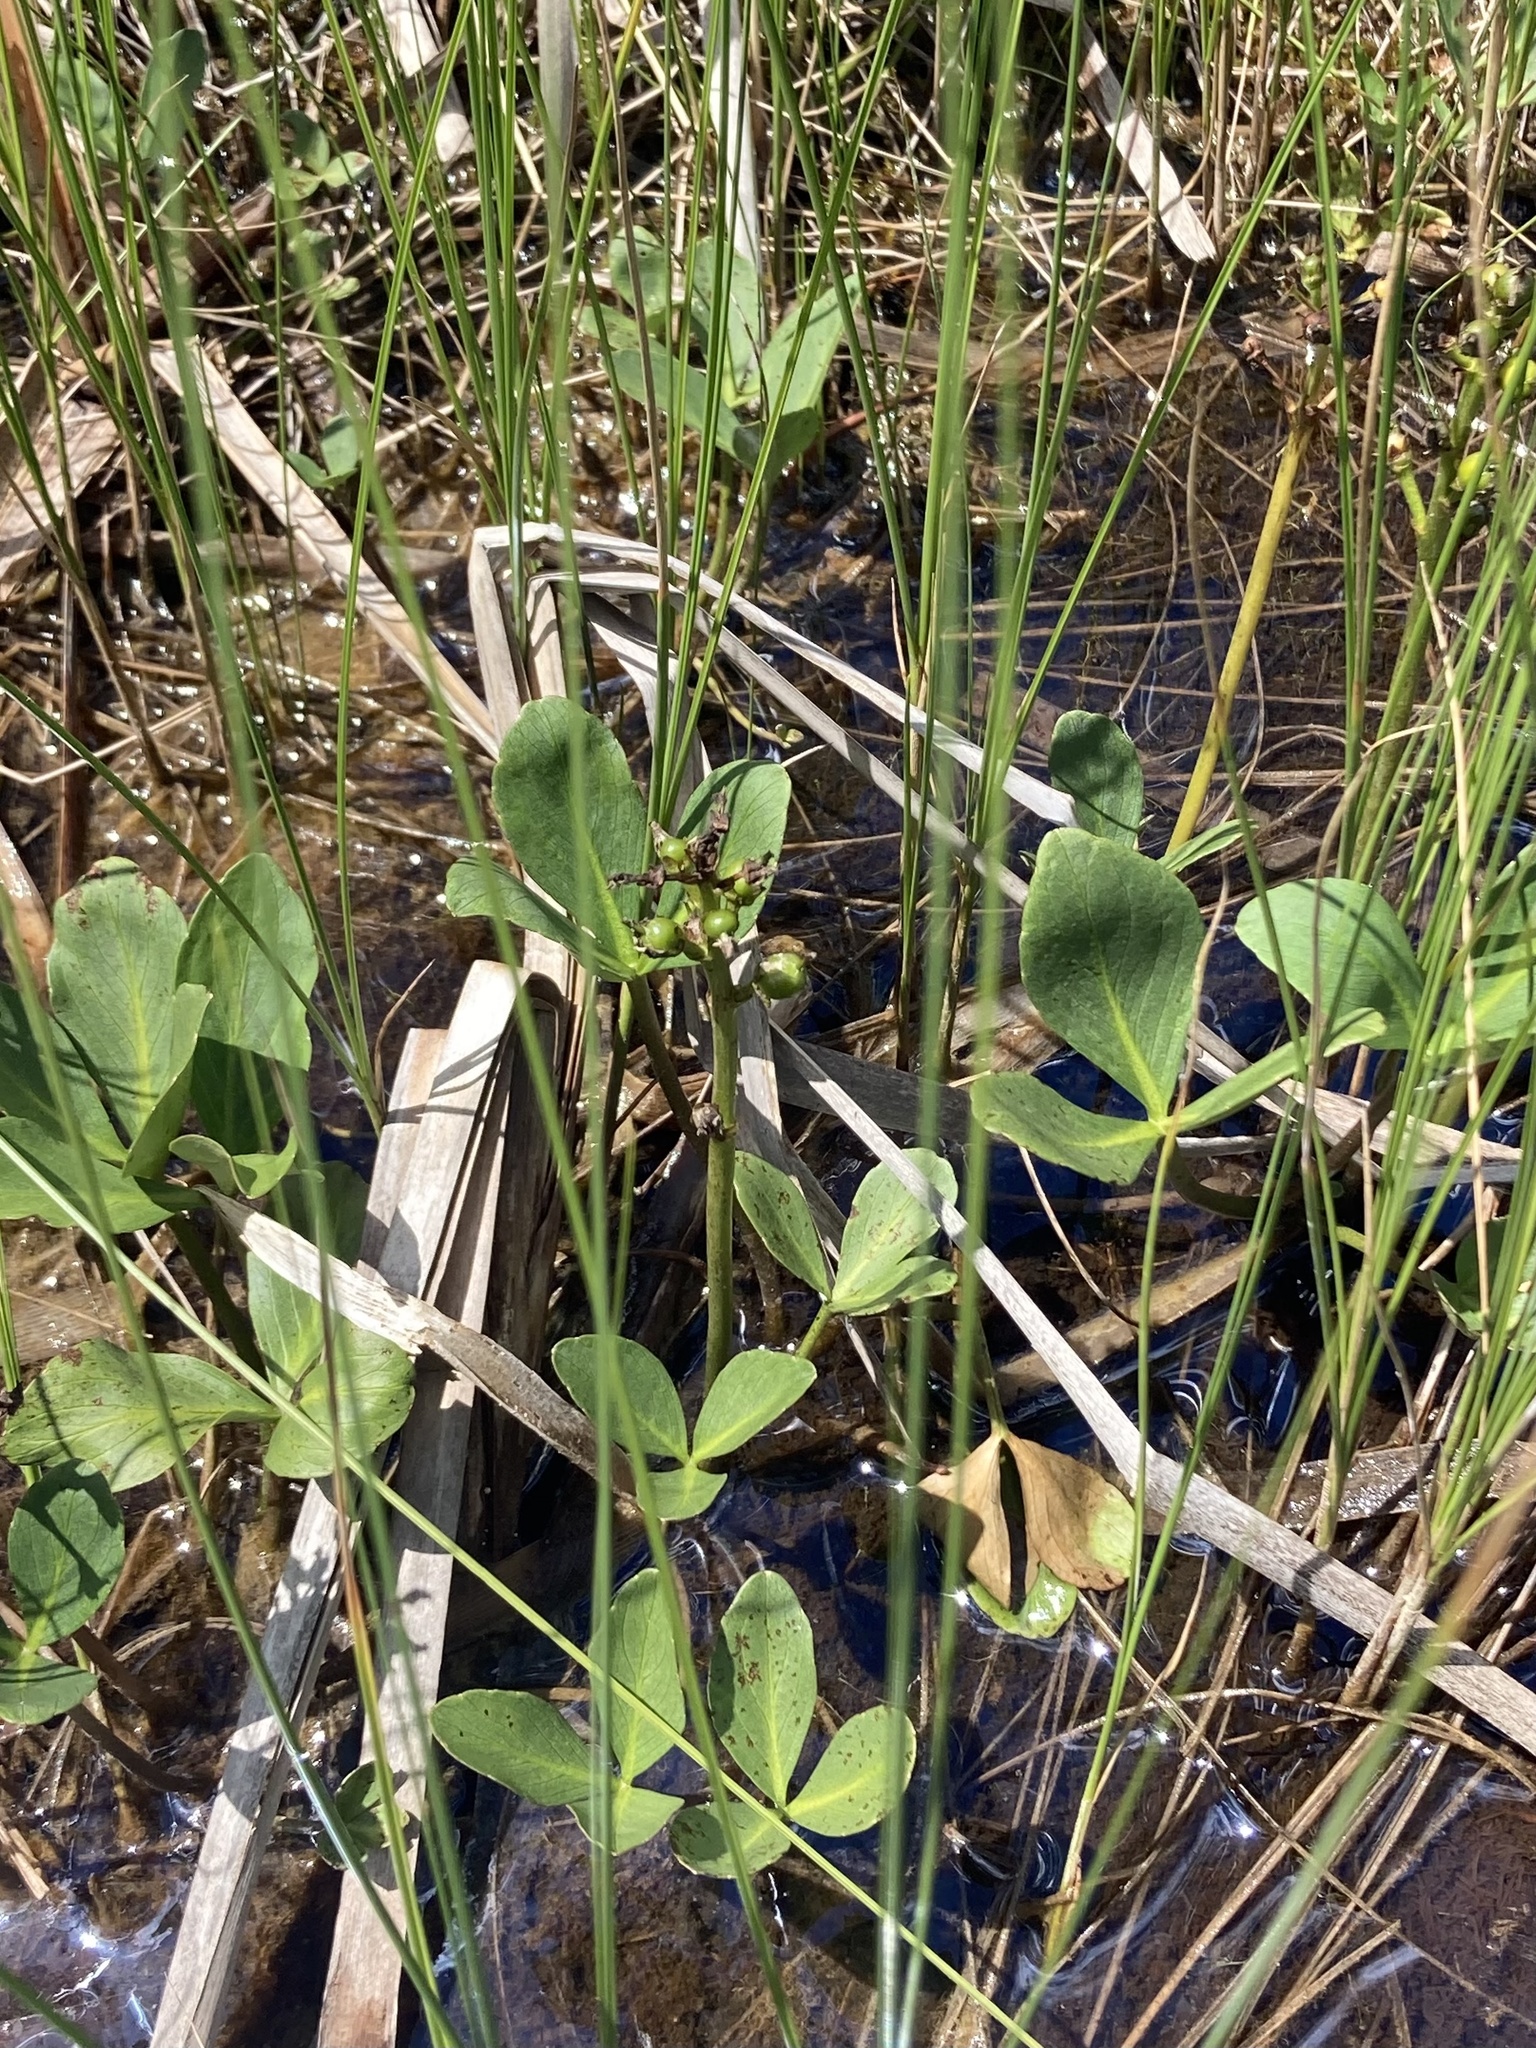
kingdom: Plantae
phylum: Tracheophyta
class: Magnoliopsida
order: Asterales
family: Menyanthaceae
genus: Menyanthes
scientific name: Menyanthes trifoliata
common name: Bogbean
